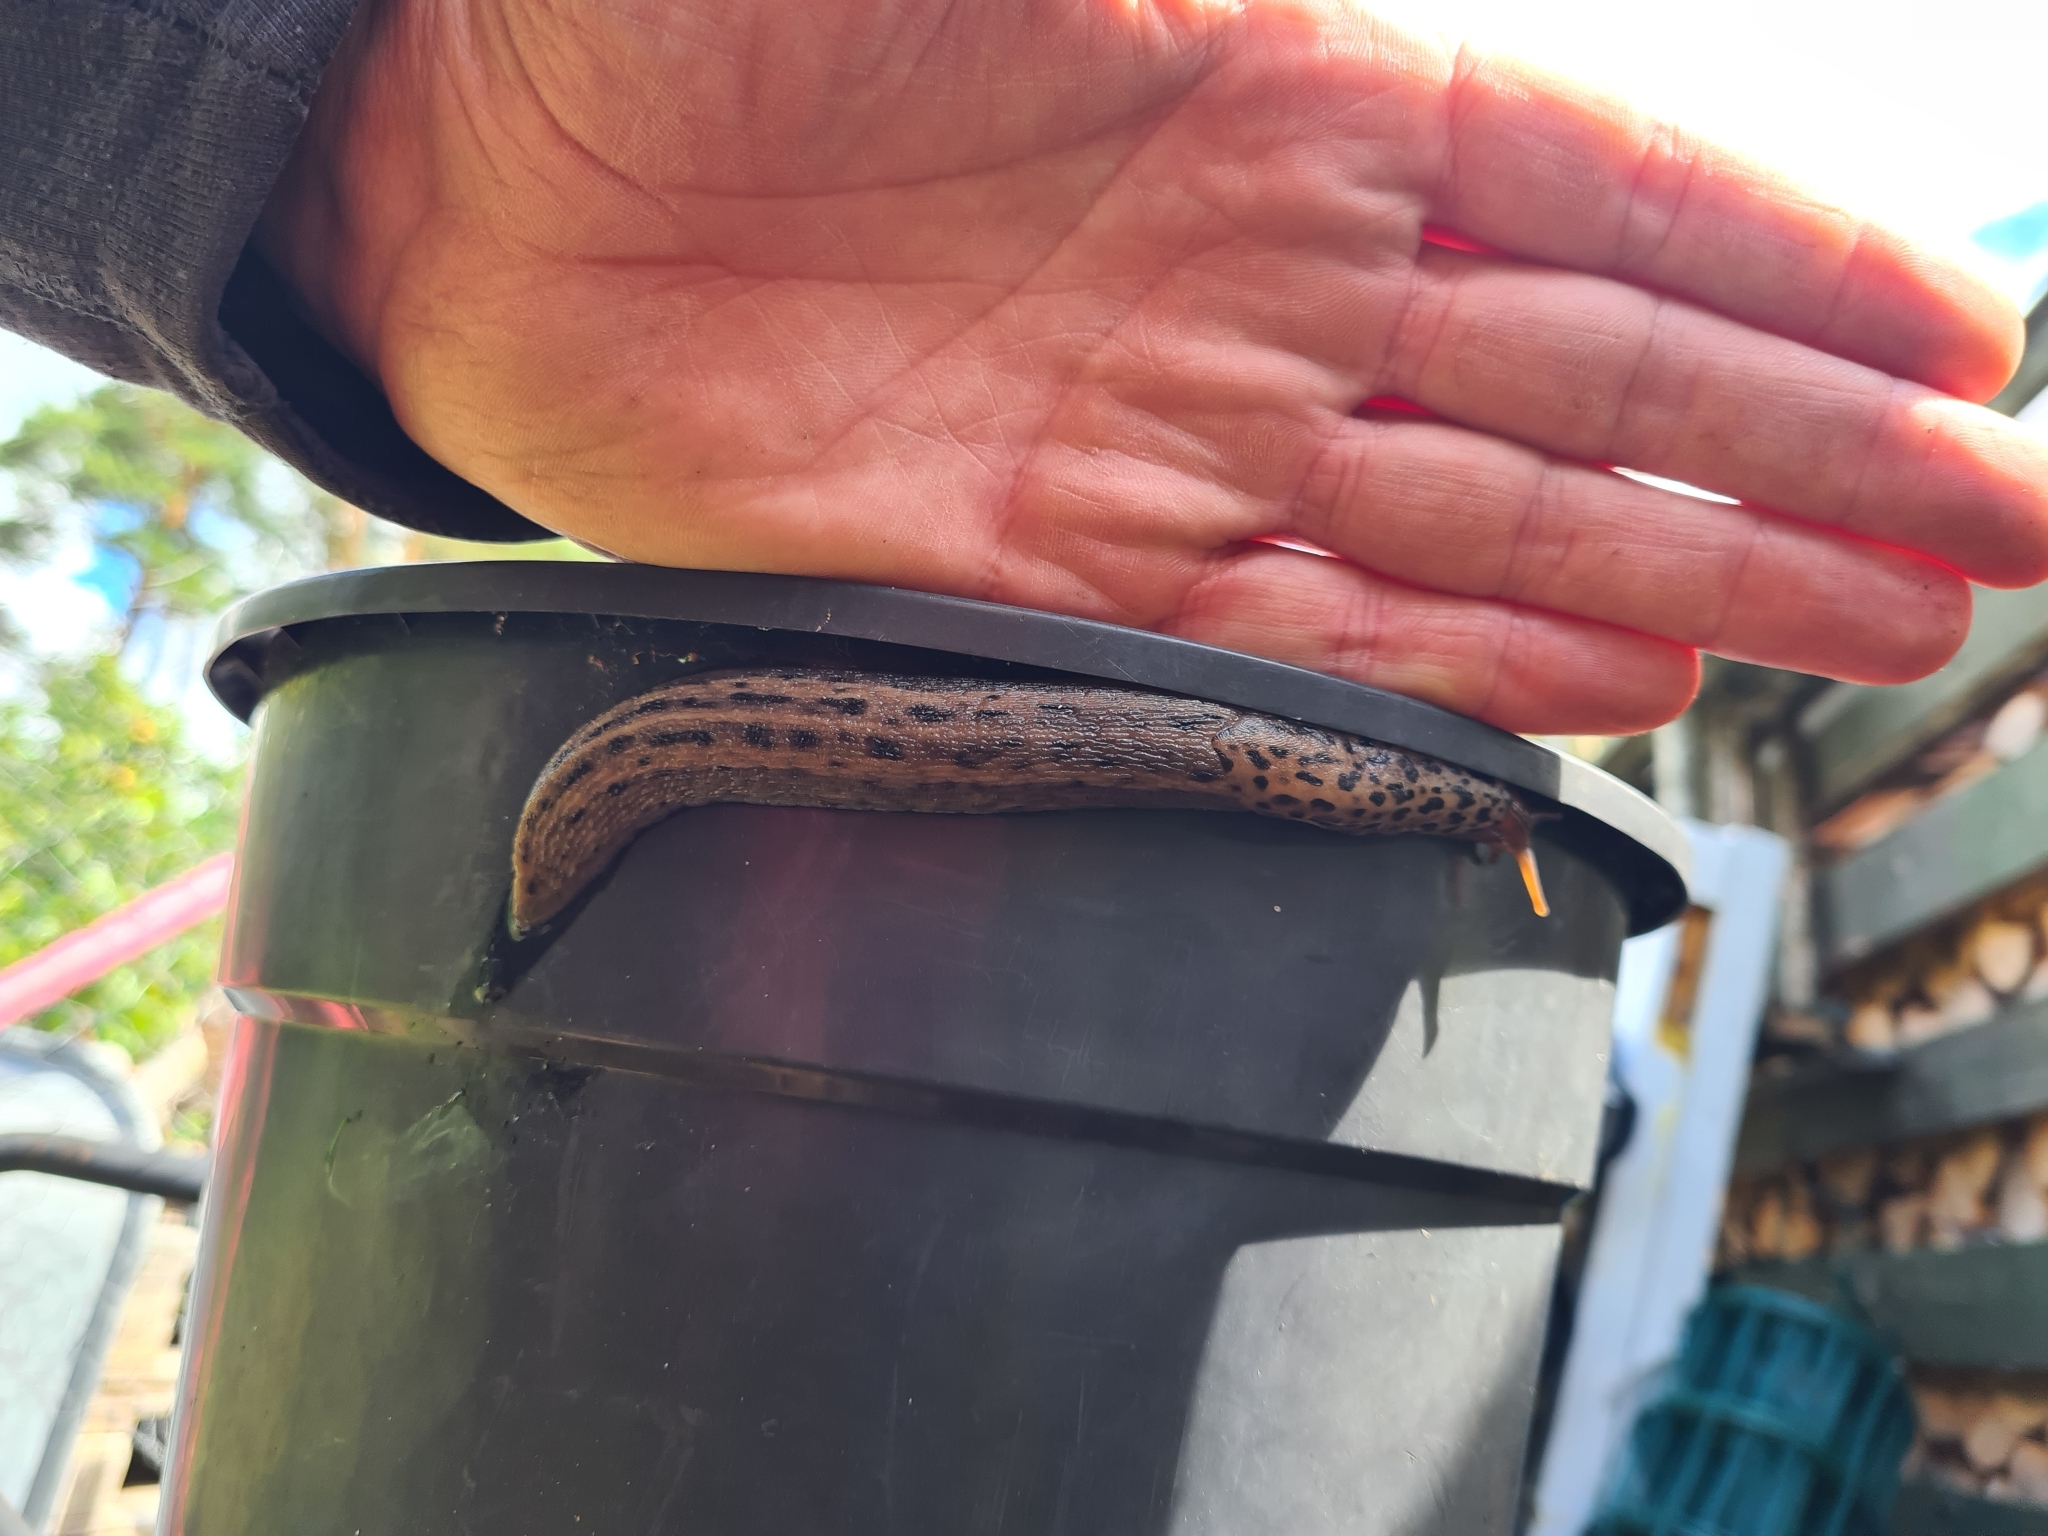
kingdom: Animalia
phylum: Mollusca
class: Gastropoda
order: Stylommatophora
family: Limacidae
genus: Limax
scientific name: Limax maximus
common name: Great grey slug
